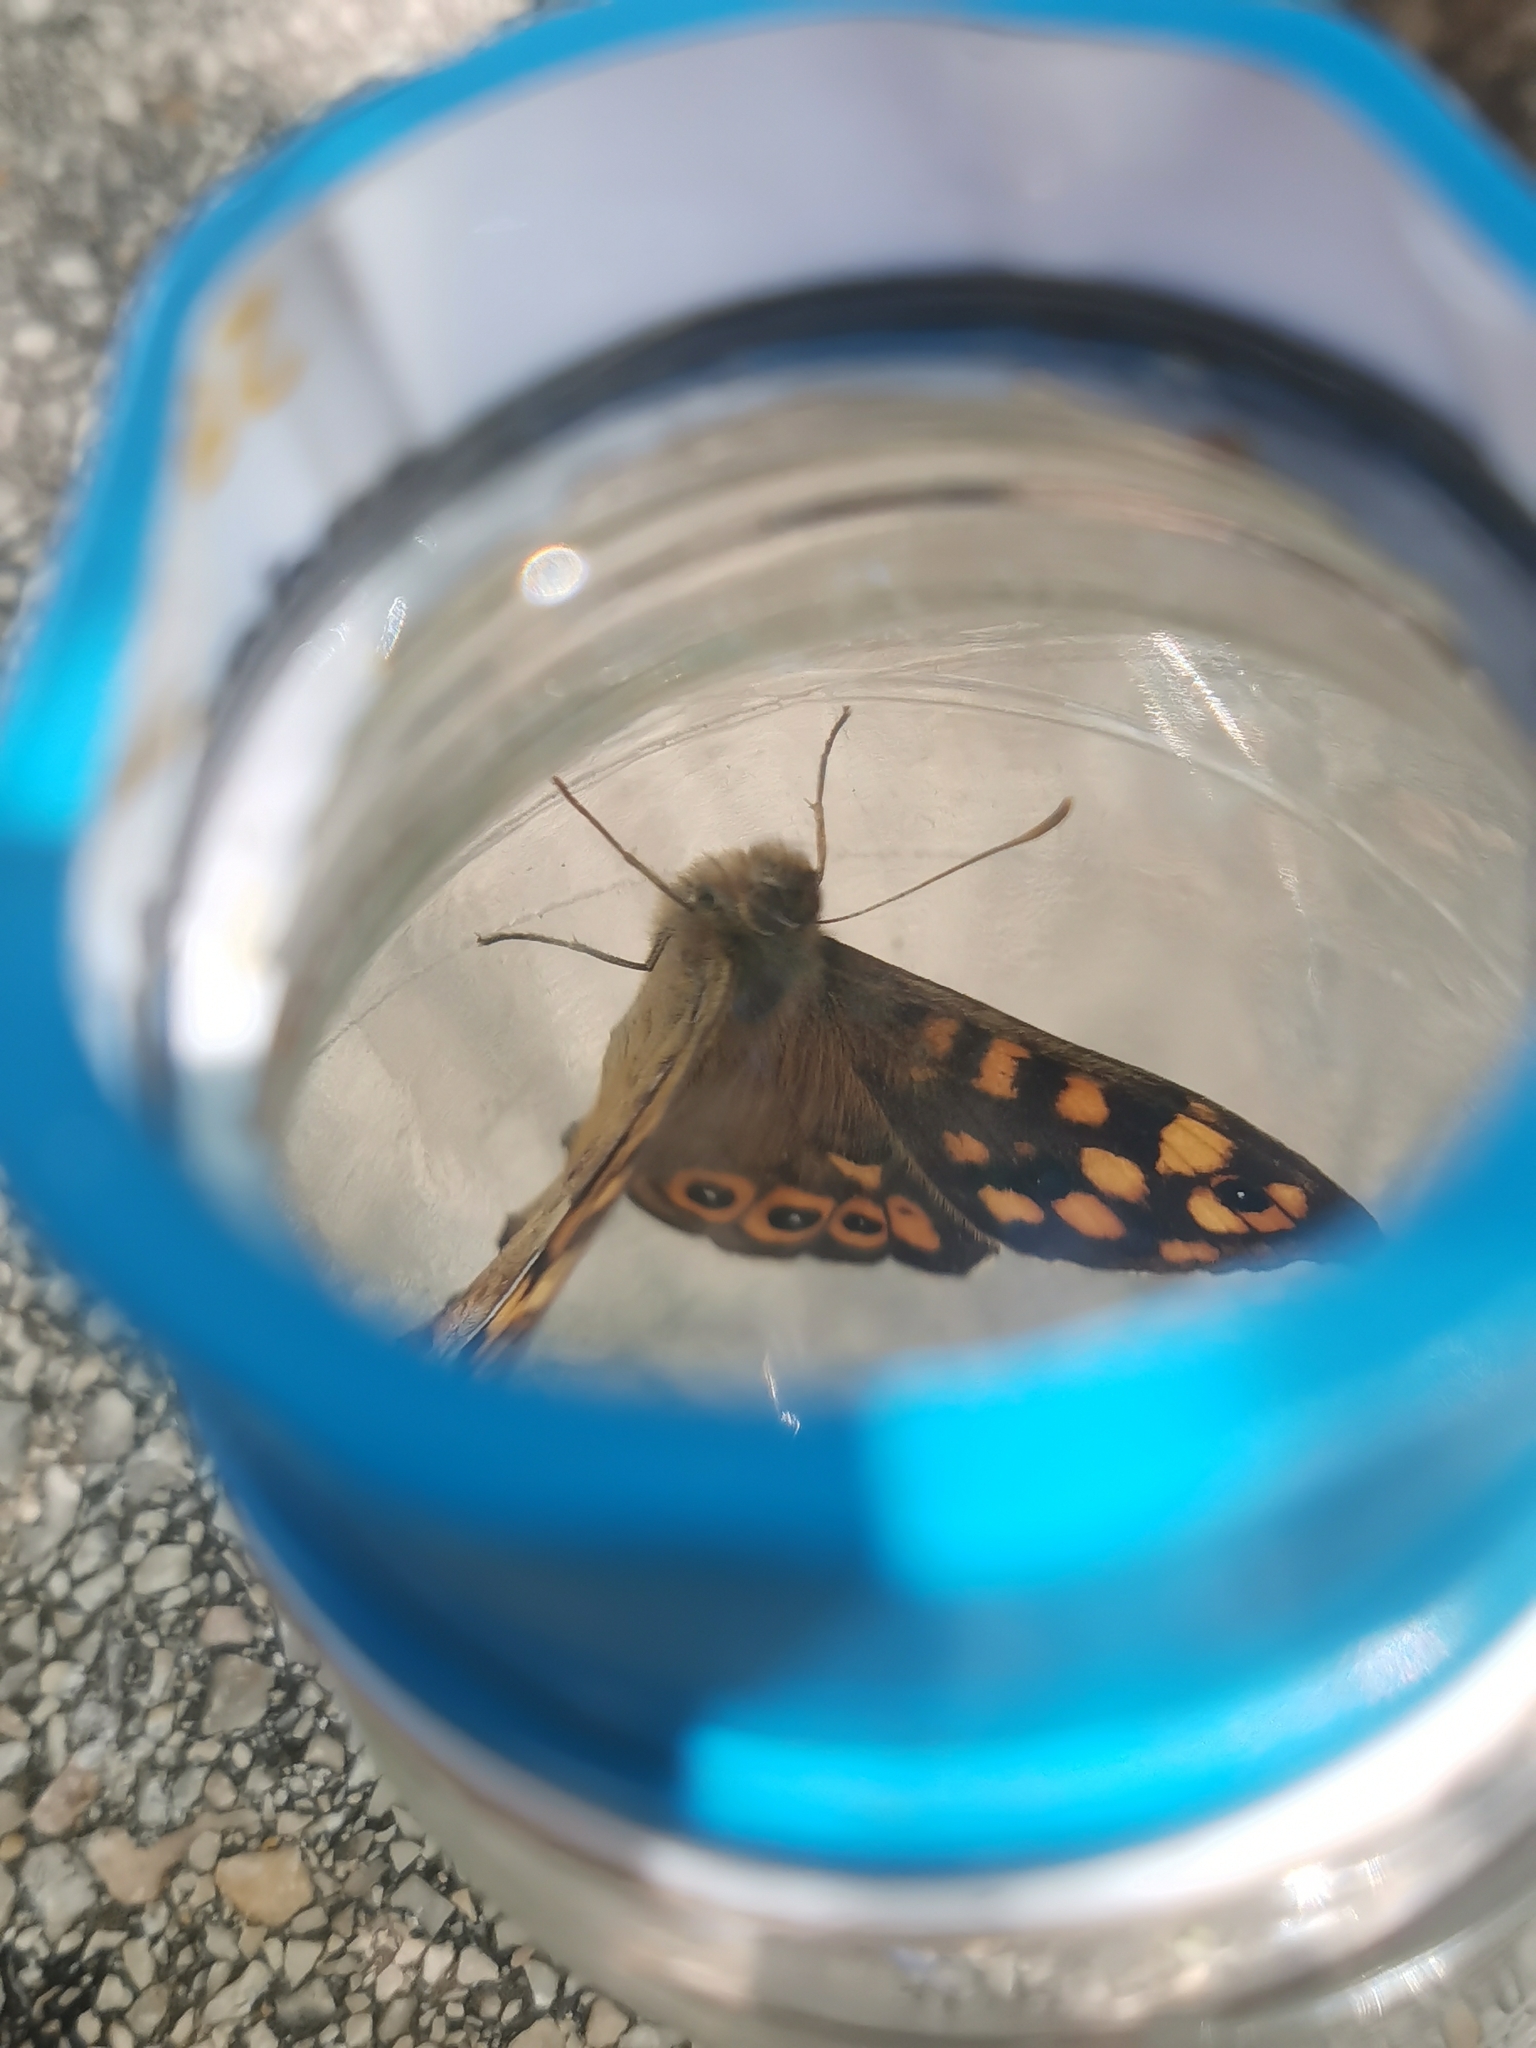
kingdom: Animalia
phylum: Arthropoda
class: Insecta
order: Lepidoptera
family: Nymphalidae
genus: Pararge
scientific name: Pararge aegeria
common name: Speckled wood
